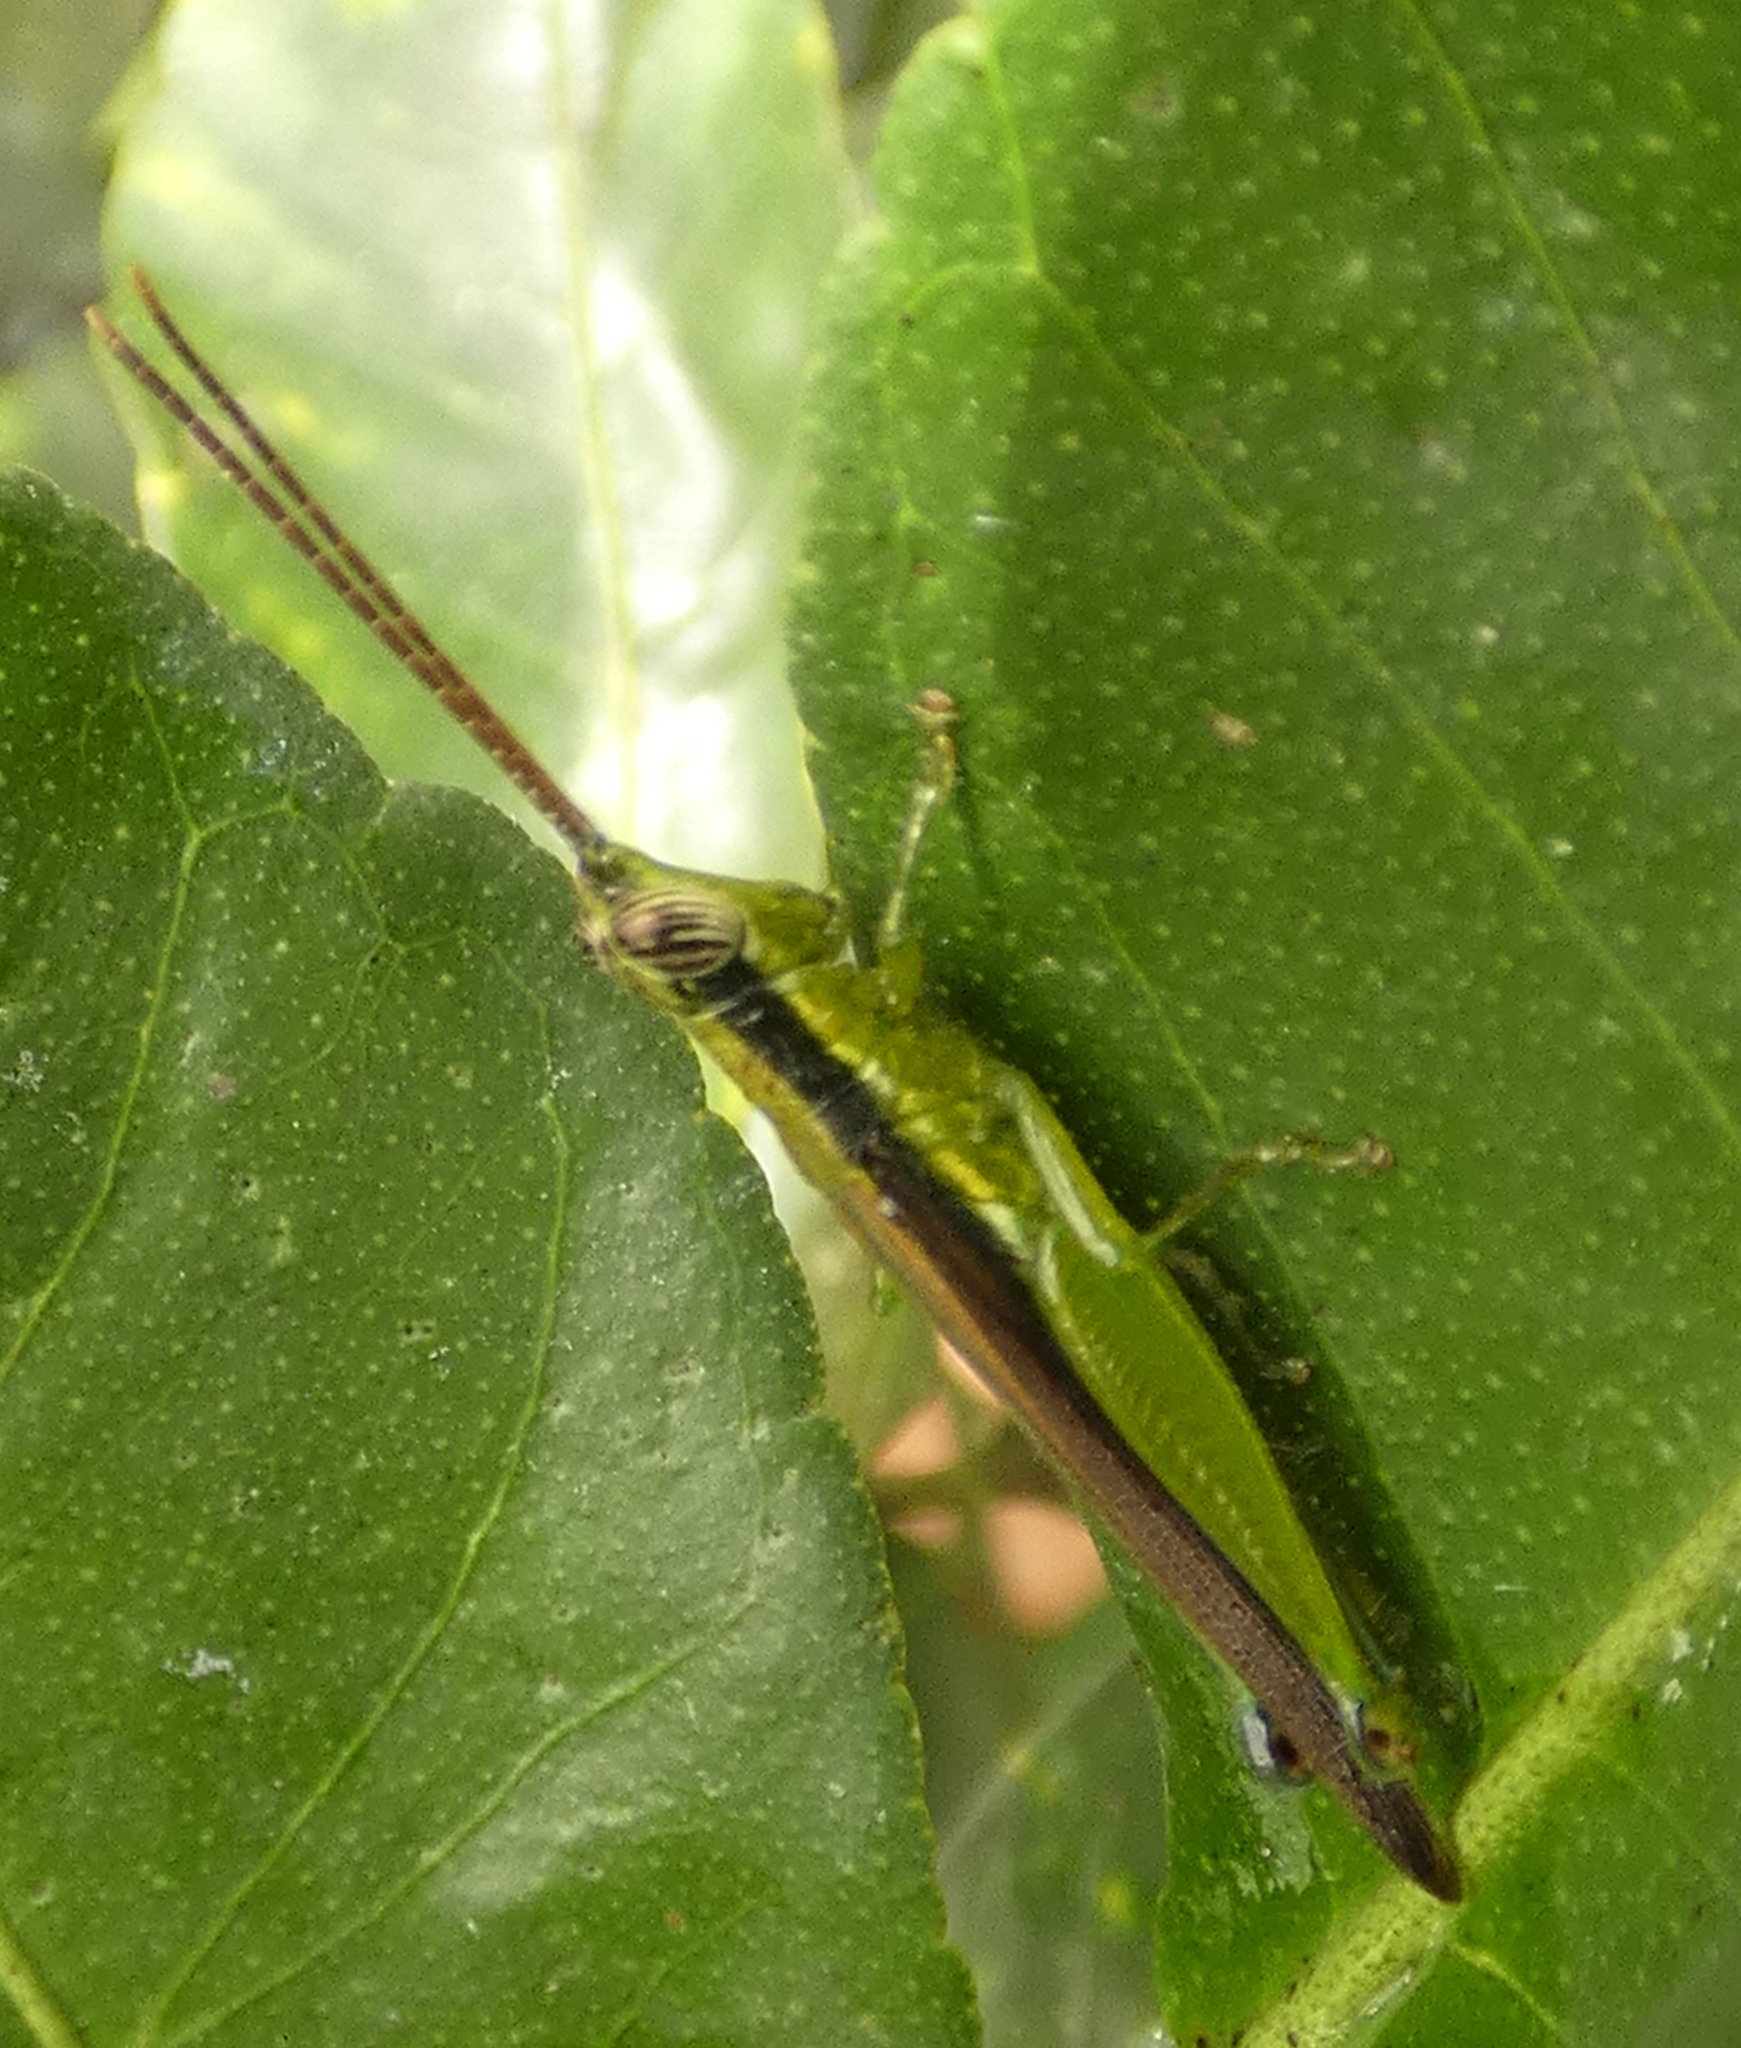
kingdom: Animalia
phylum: Arthropoda
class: Insecta
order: Orthoptera
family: Acrididae
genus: Stenopola
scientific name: Stenopola puncticeps
